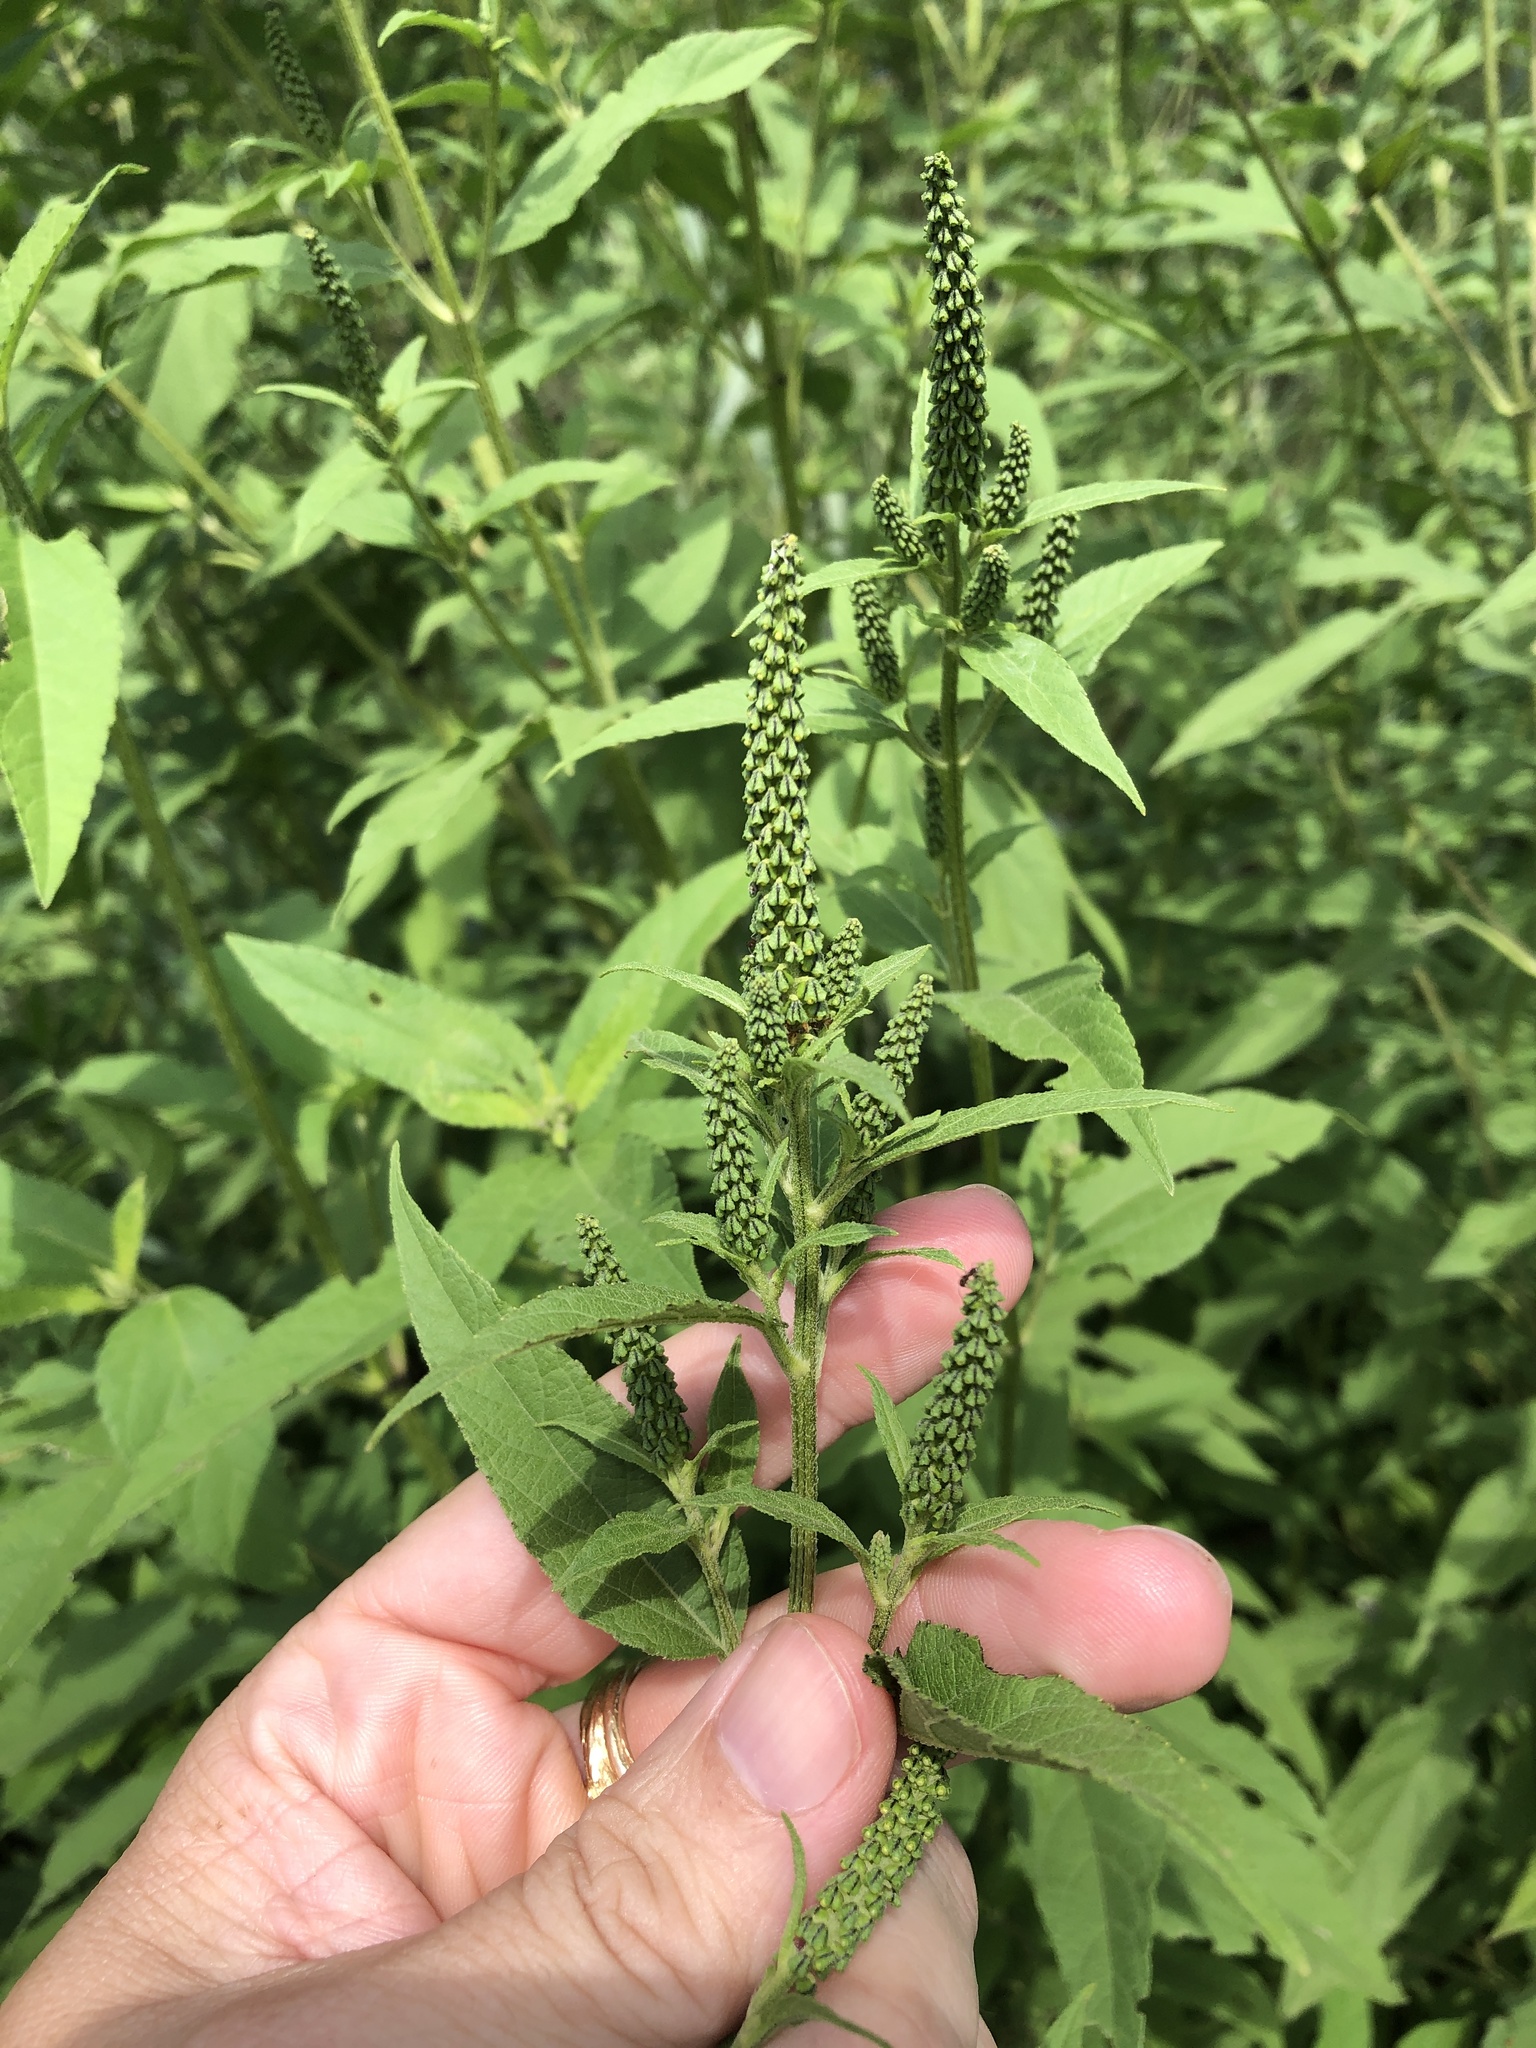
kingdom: Plantae
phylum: Tracheophyta
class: Magnoliopsida
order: Asterales
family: Asteraceae
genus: Ambrosia
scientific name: Ambrosia trifida
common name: Giant ragweed
